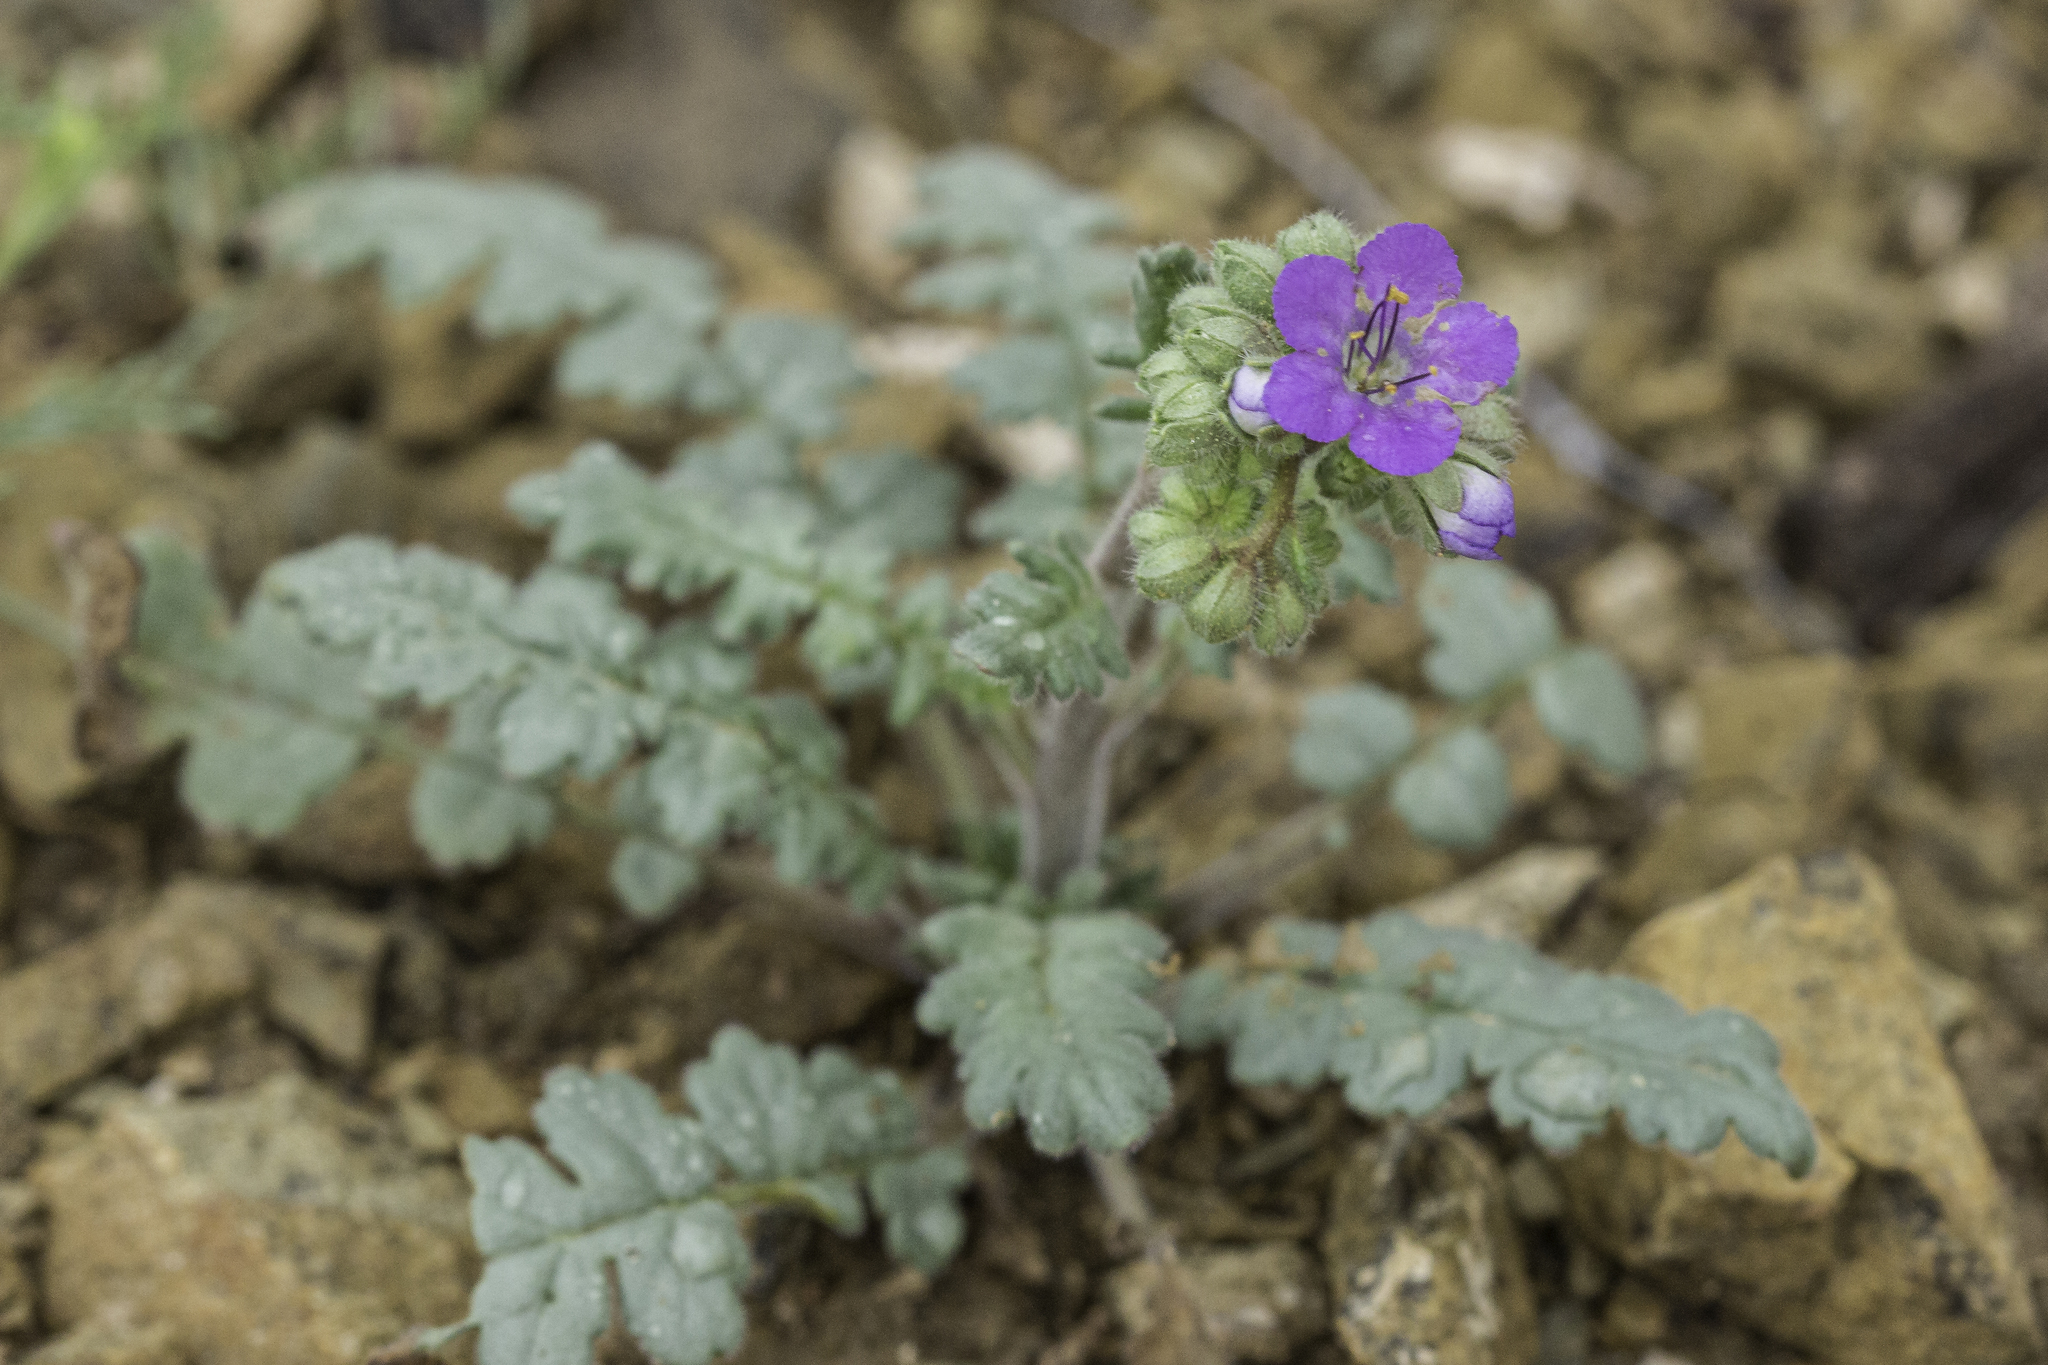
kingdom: Plantae
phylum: Tracheophyta
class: Magnoliopsida
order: Boraginales
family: Hydrophyllaceae
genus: Phacelia
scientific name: Phacelia crenulata
